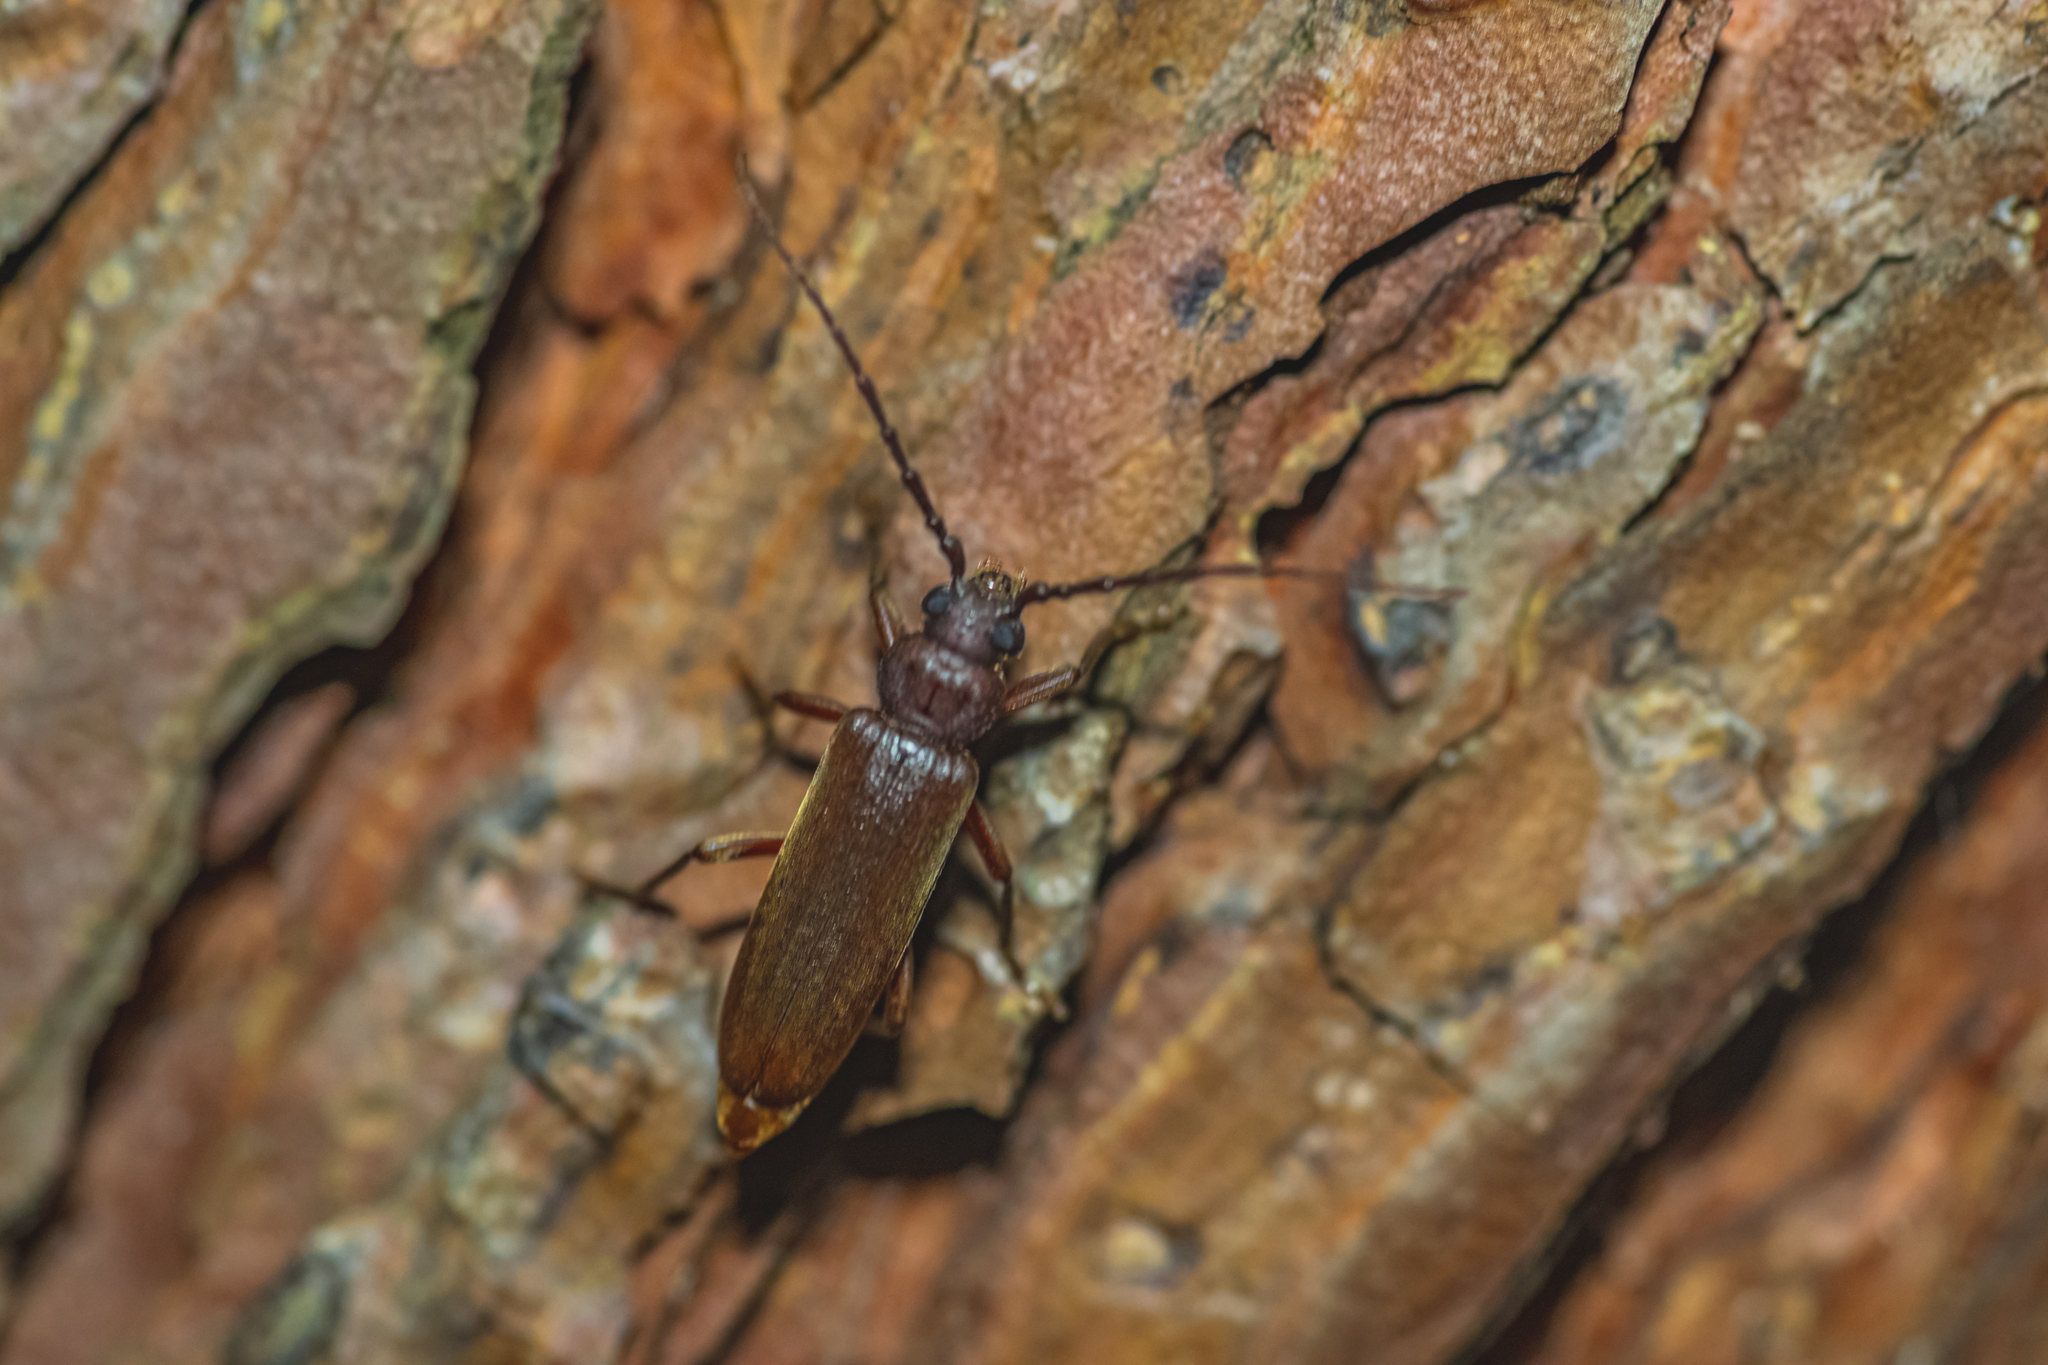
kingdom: Animalia
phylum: Arthropoda
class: Insecta
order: Coleoptera
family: Cerambycidae
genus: Phymatodes
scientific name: Phymatodes testaceus
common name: Long-horned beetle
